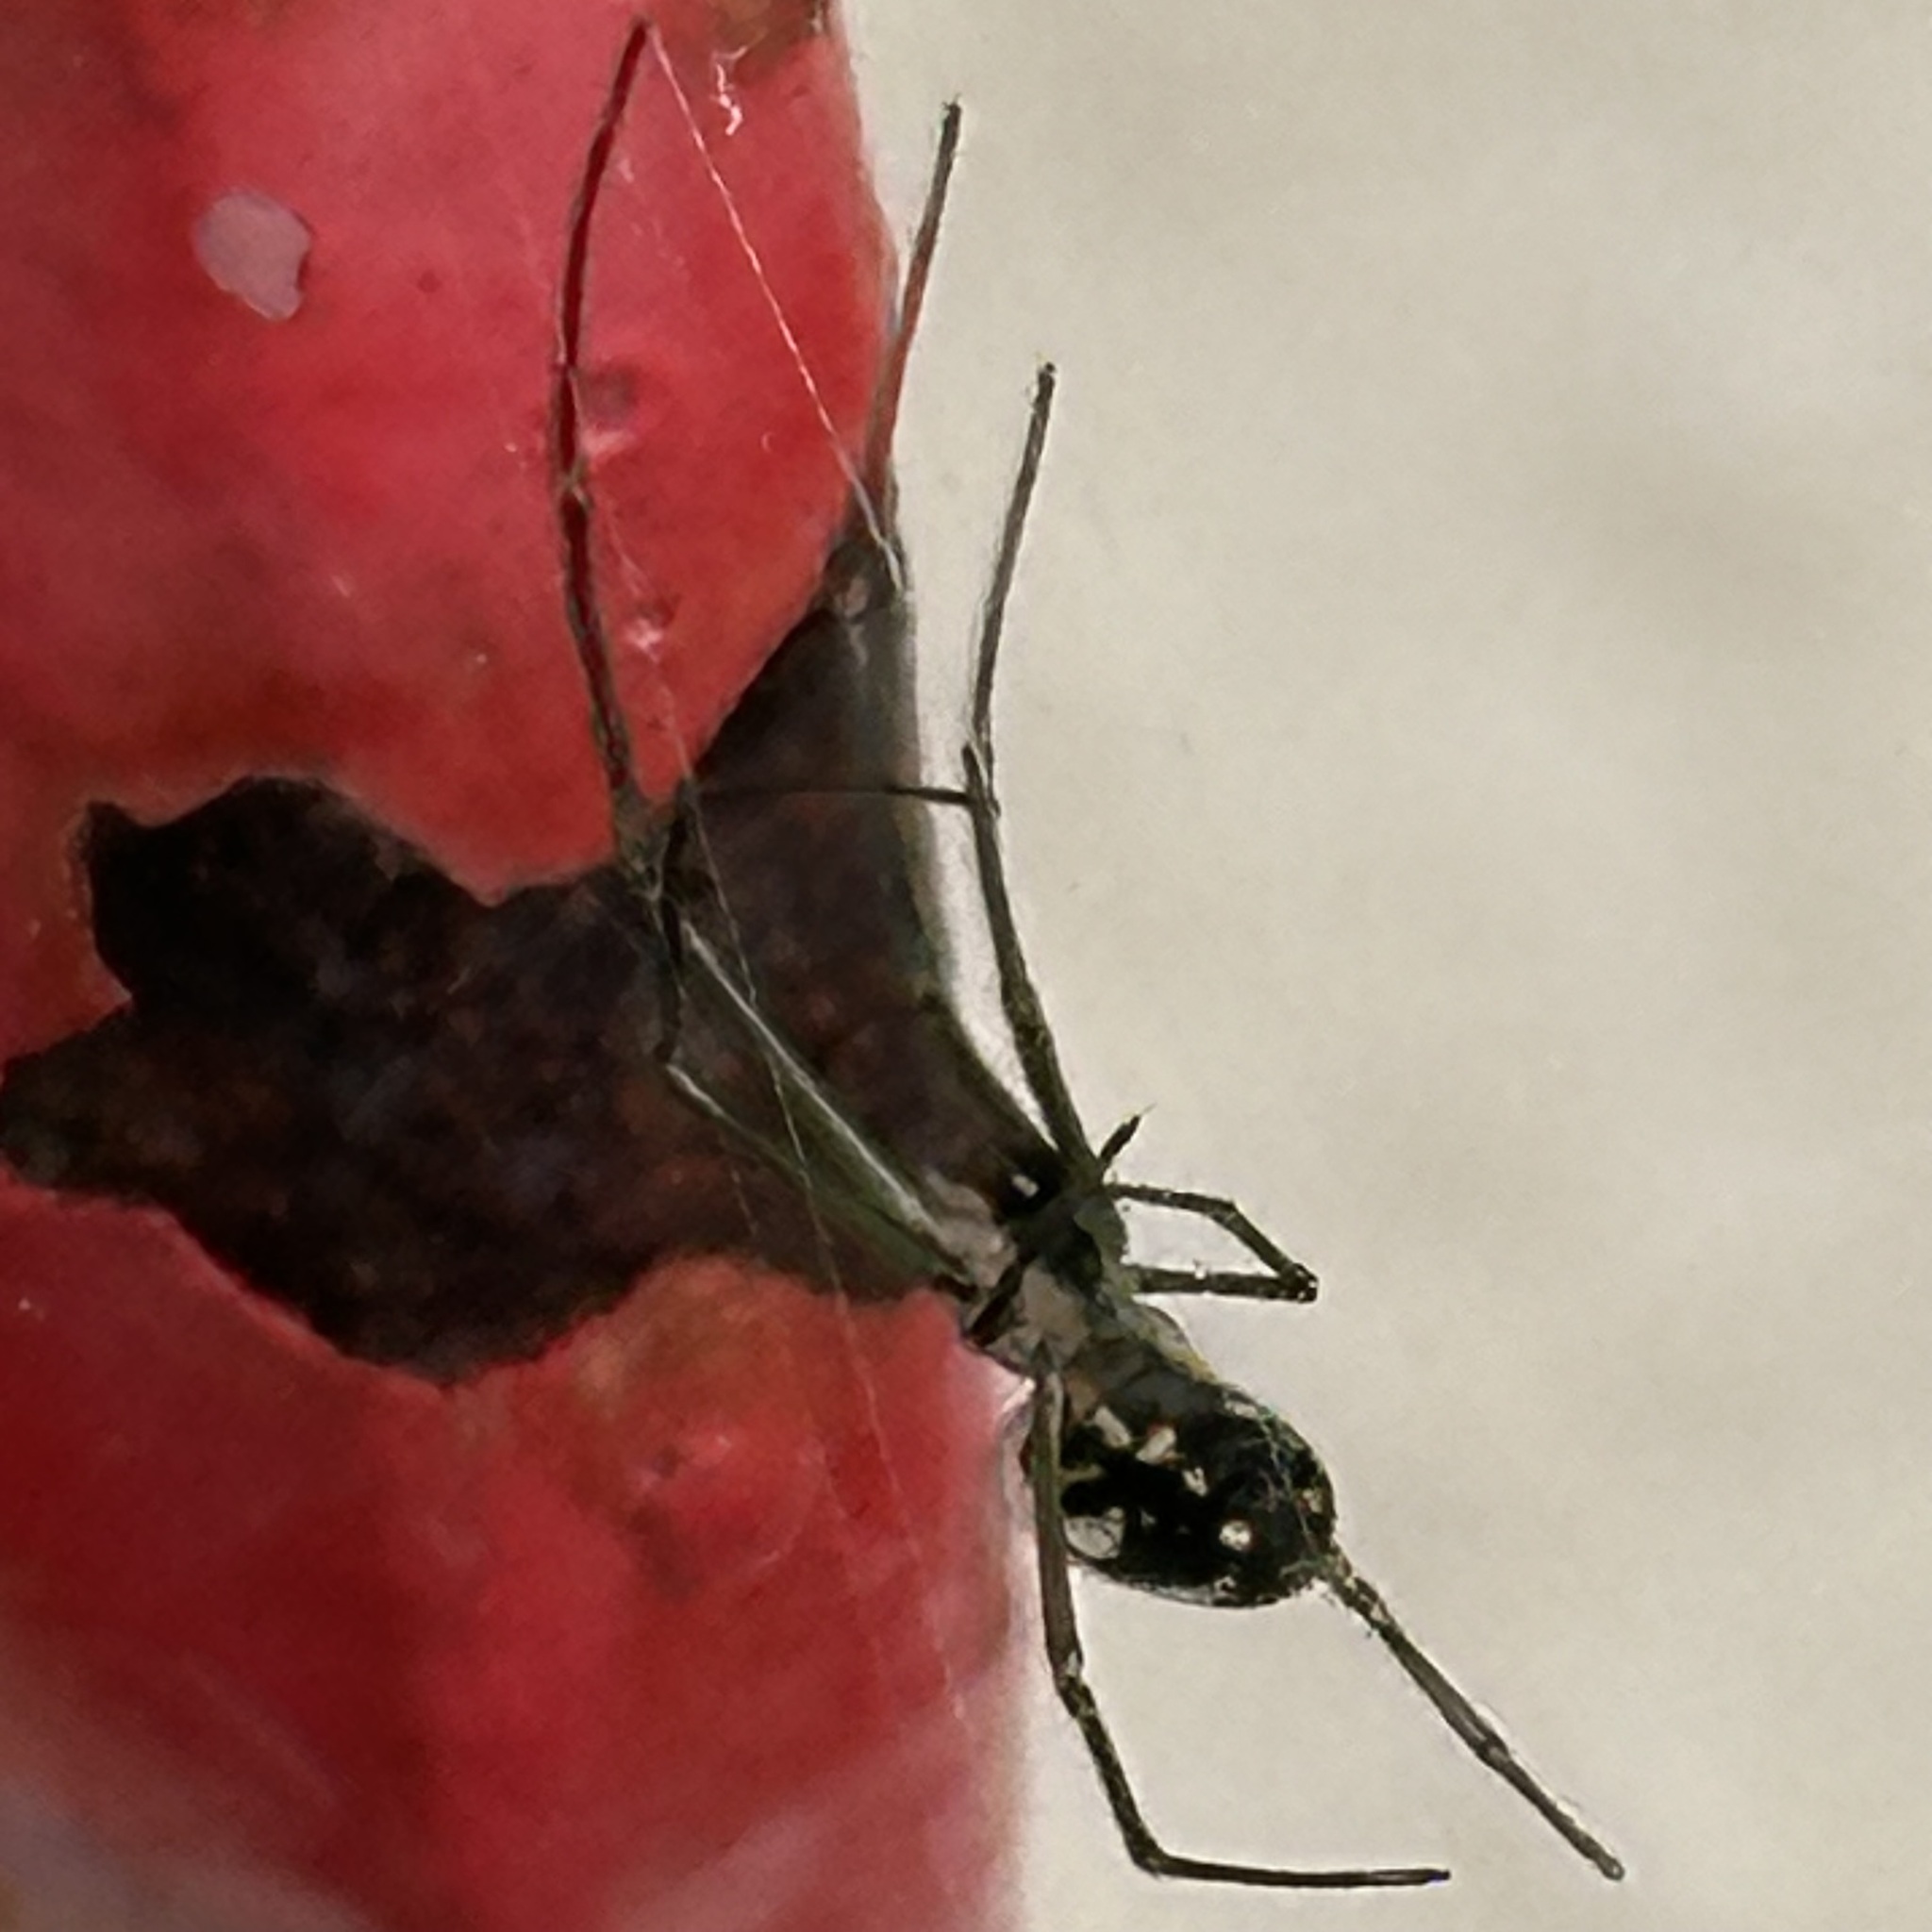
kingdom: Animalia
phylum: Arthropoda
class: Arachnida
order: Araneae
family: Tetragnathidae
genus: Leucauge
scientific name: Leucauge argyra
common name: Longjawed orb weavers
